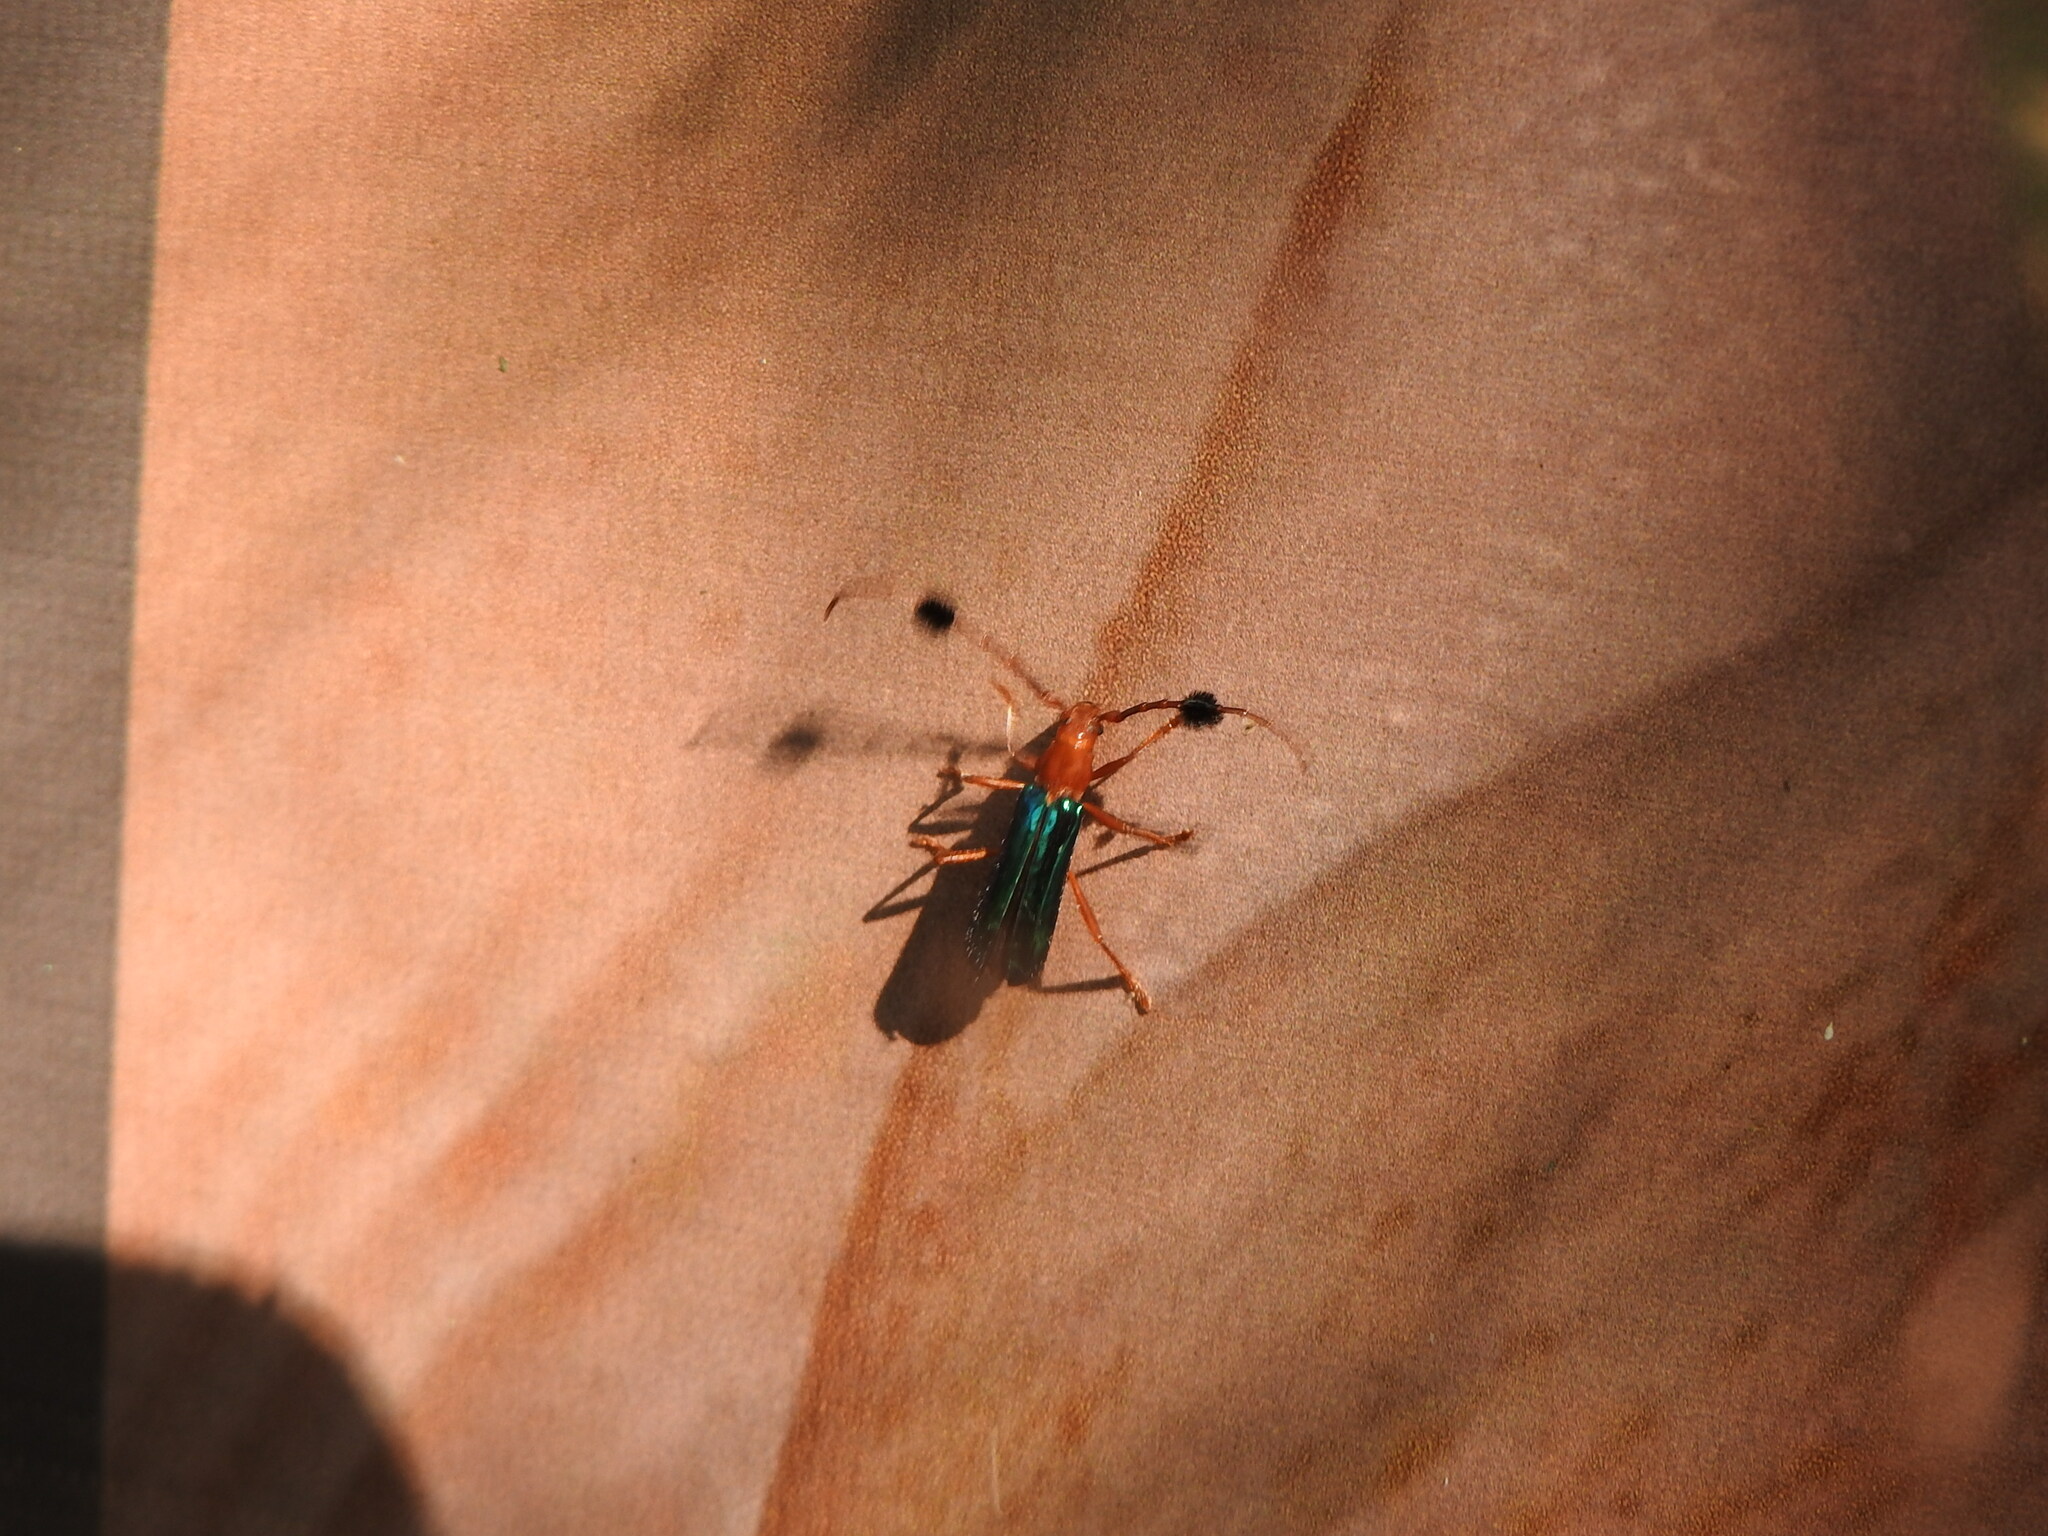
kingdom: Animalia
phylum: Arthropoda
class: Insecta
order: Coleoptera
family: Cerambycidae
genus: Compsocerus
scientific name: Compsocerus violaceus
